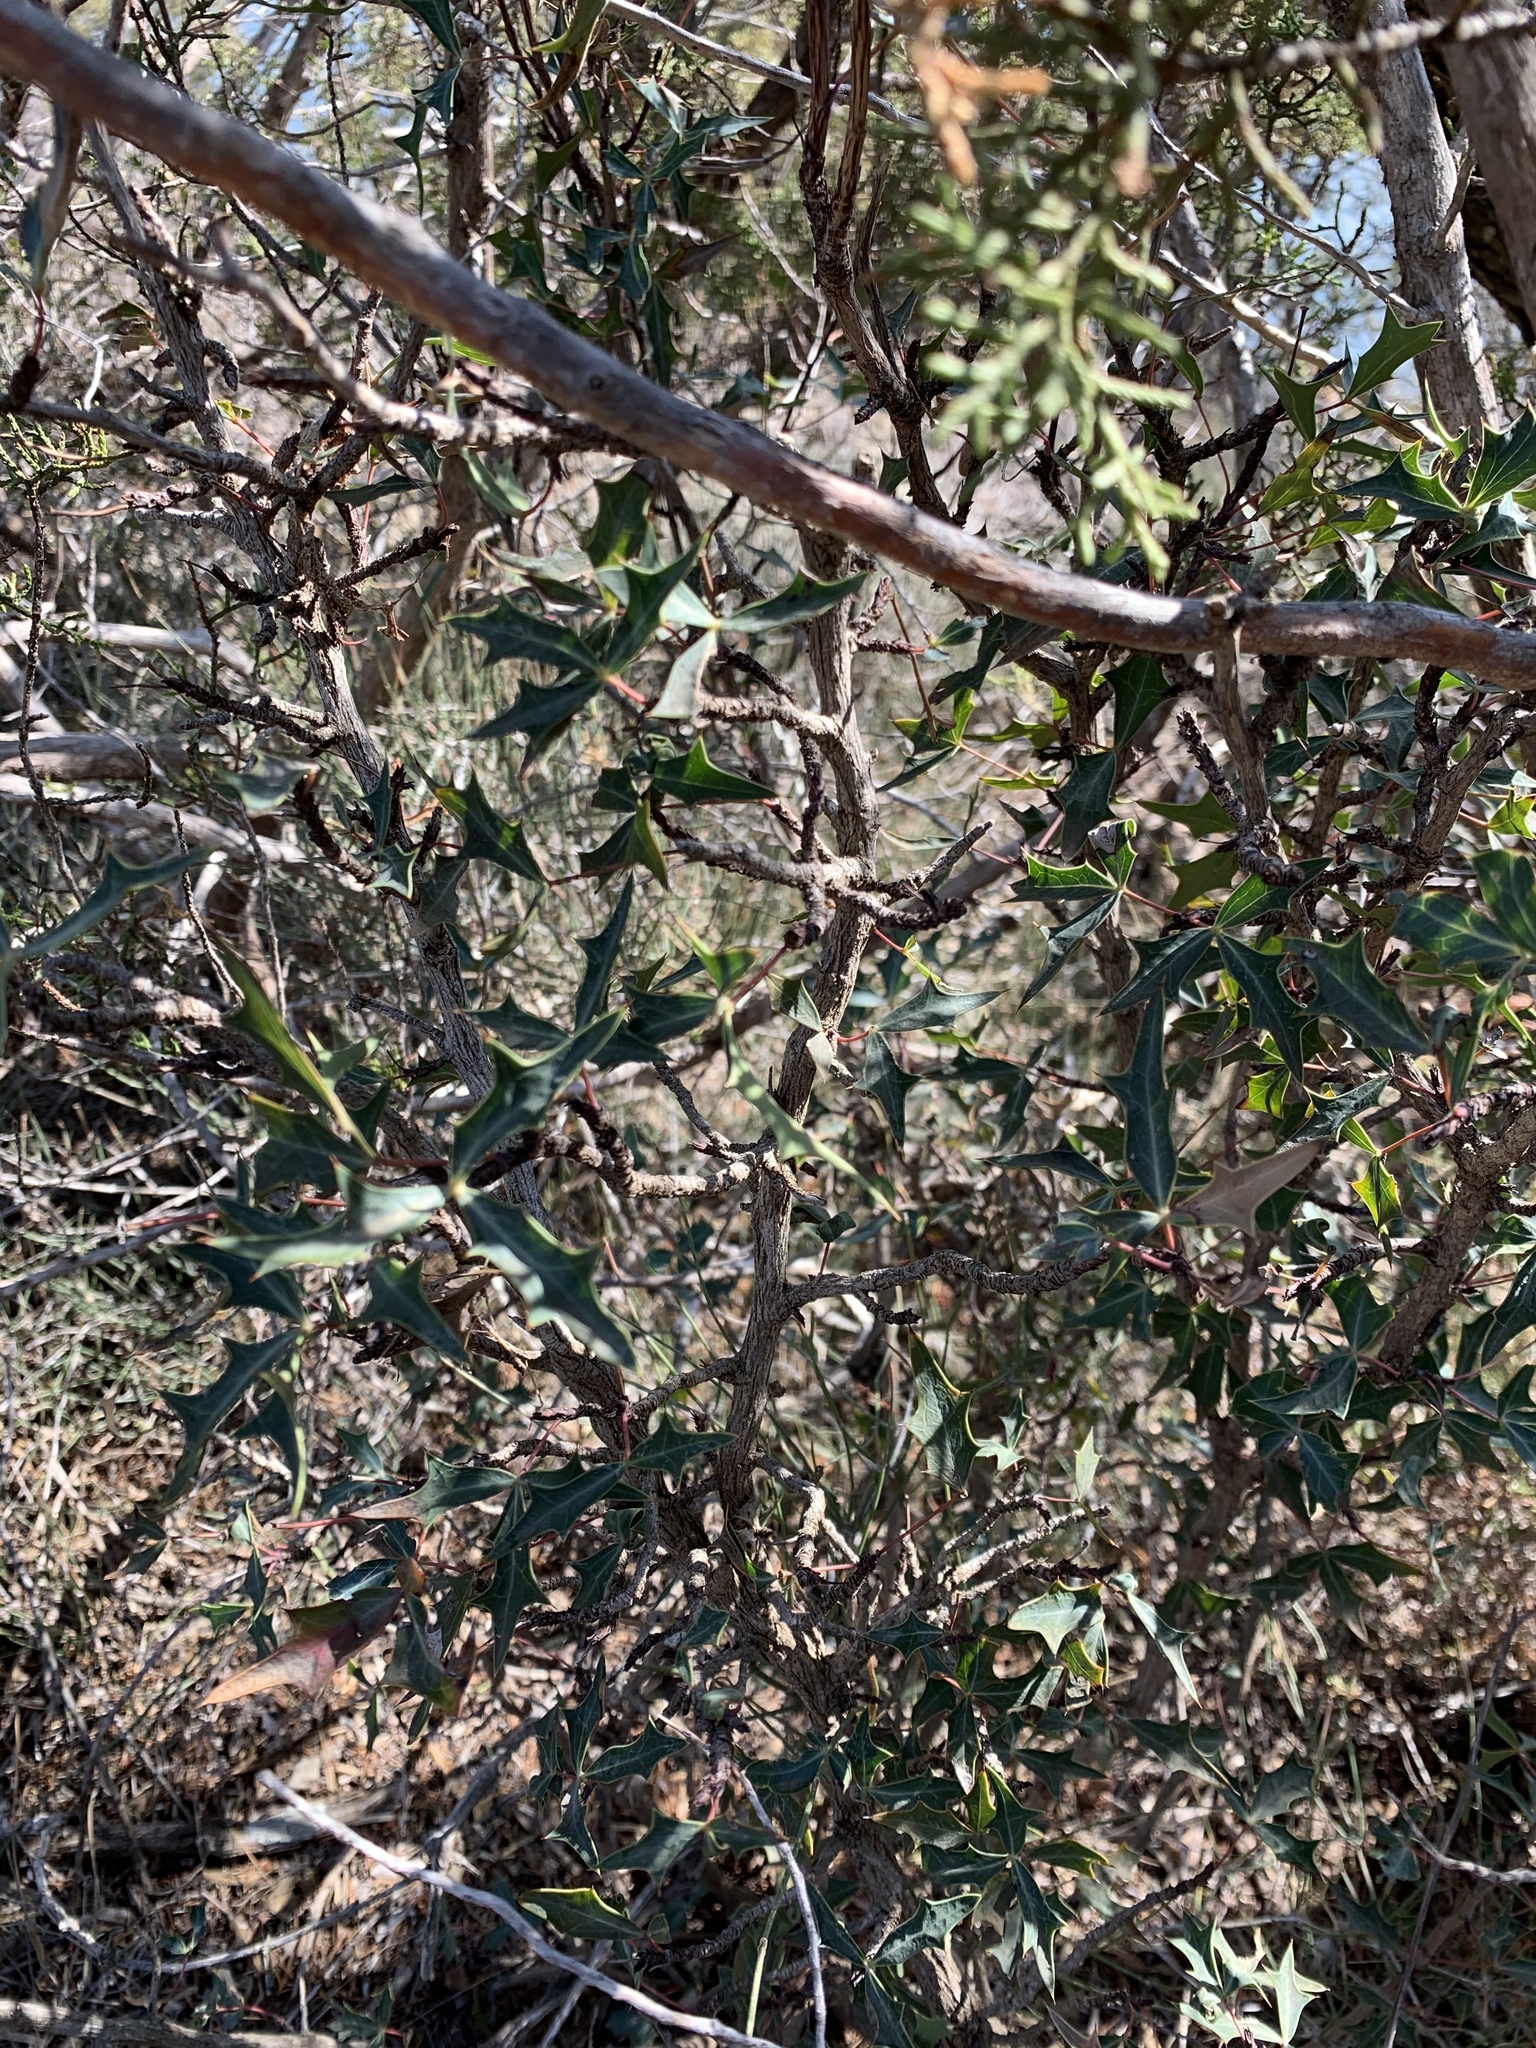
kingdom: Plantae
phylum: Tracheophyta
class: Magnoliopsida
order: Ranunculales
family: Berberidaceae
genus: Alloberberis
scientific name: Alloberberis trifoliolata
